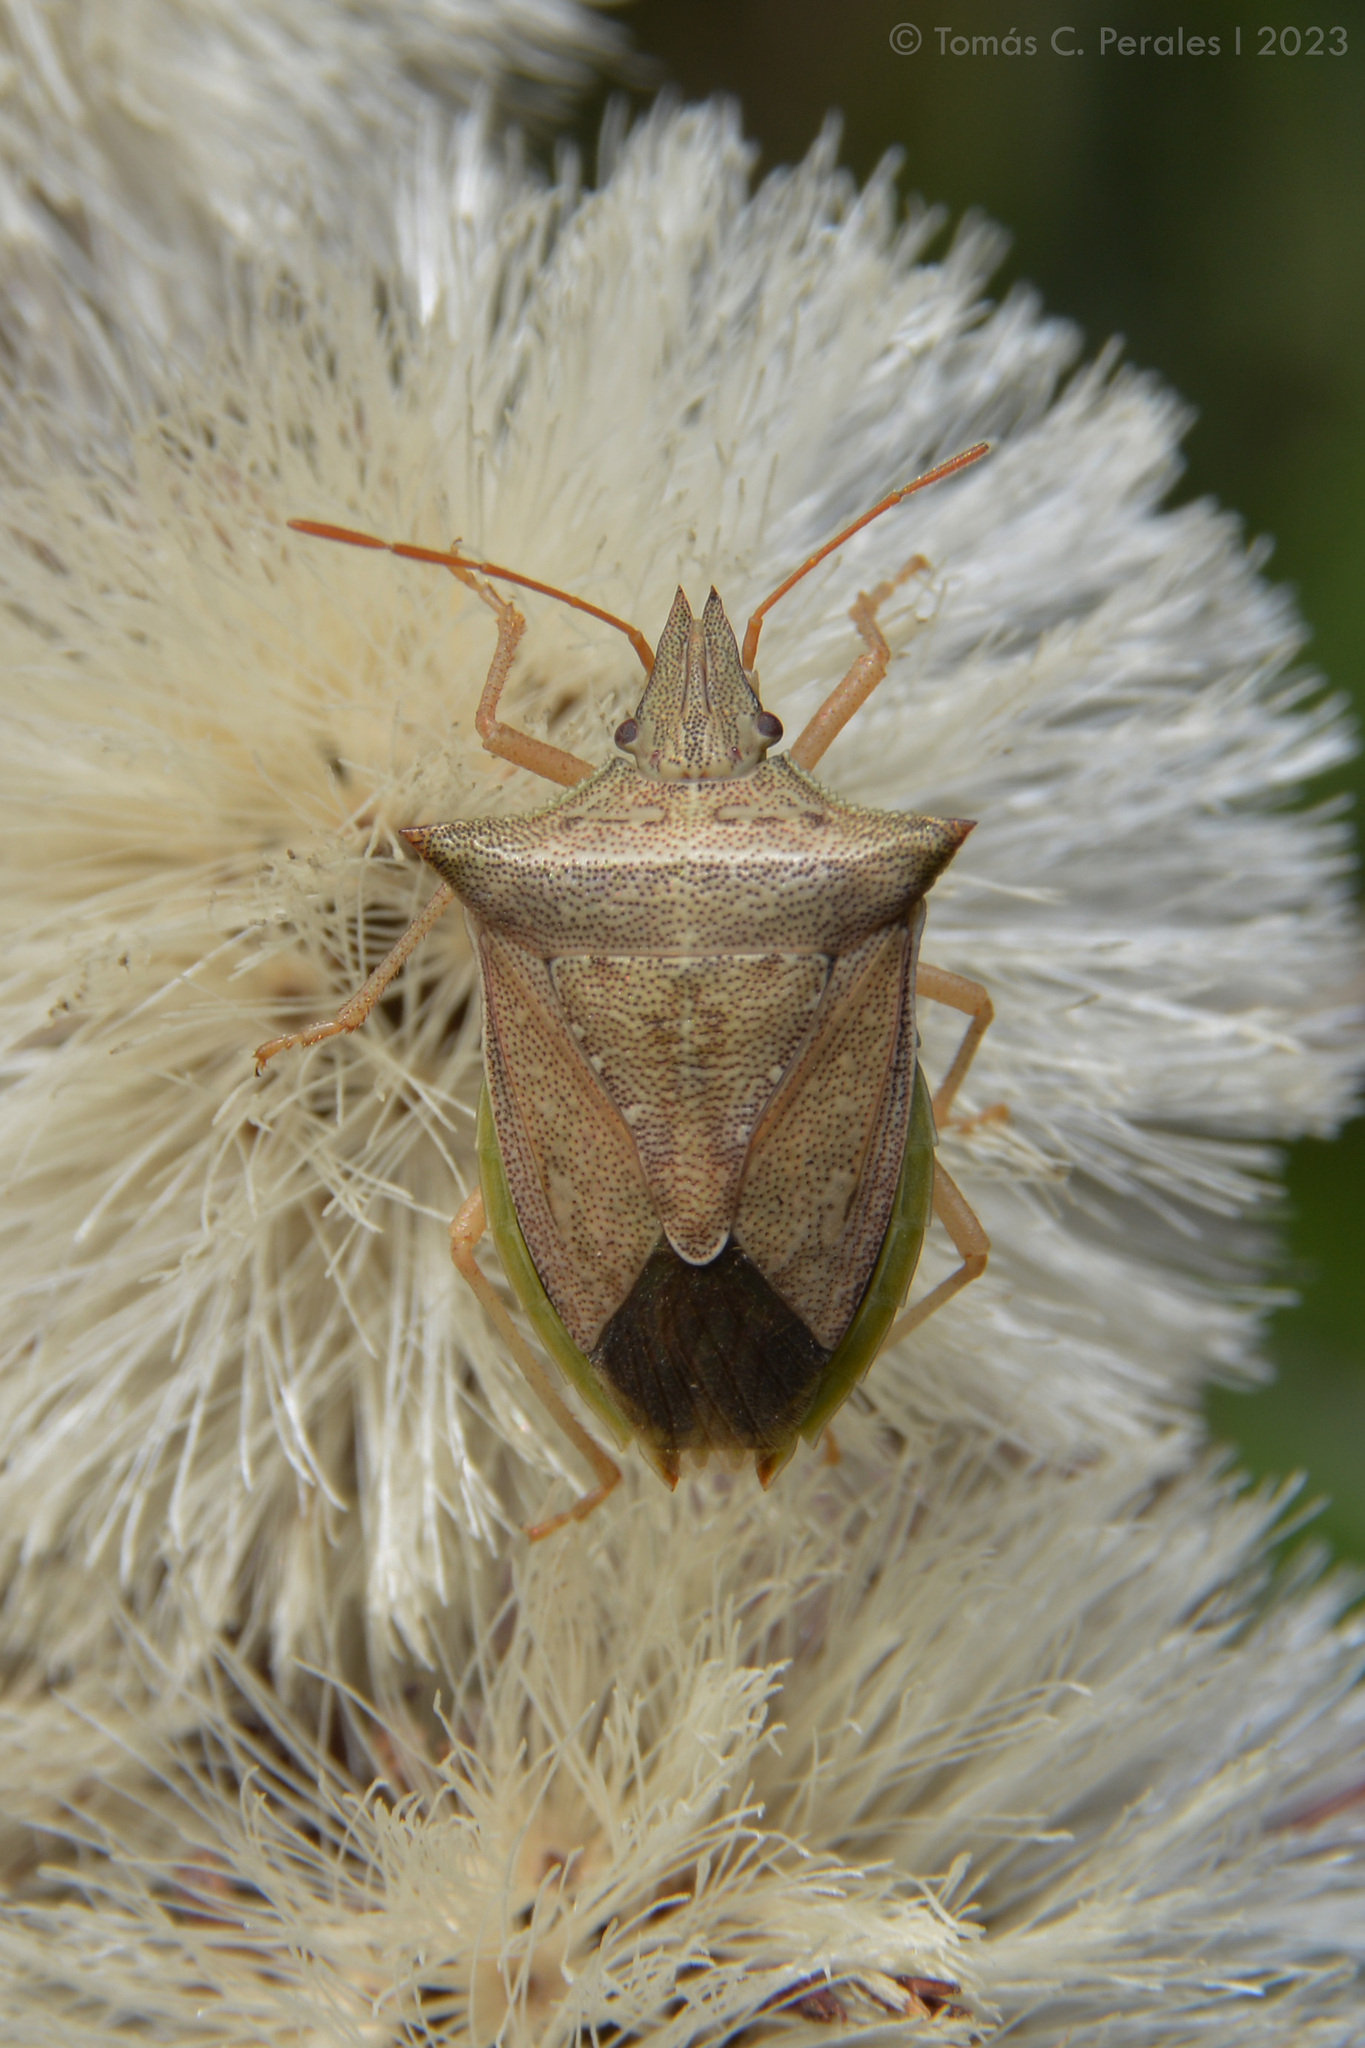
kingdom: Animalia
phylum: Arthropoda
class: Insecta
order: Hemiptera
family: Pentatomidae
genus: Diceraeus
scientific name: Diceraeus furcatus
